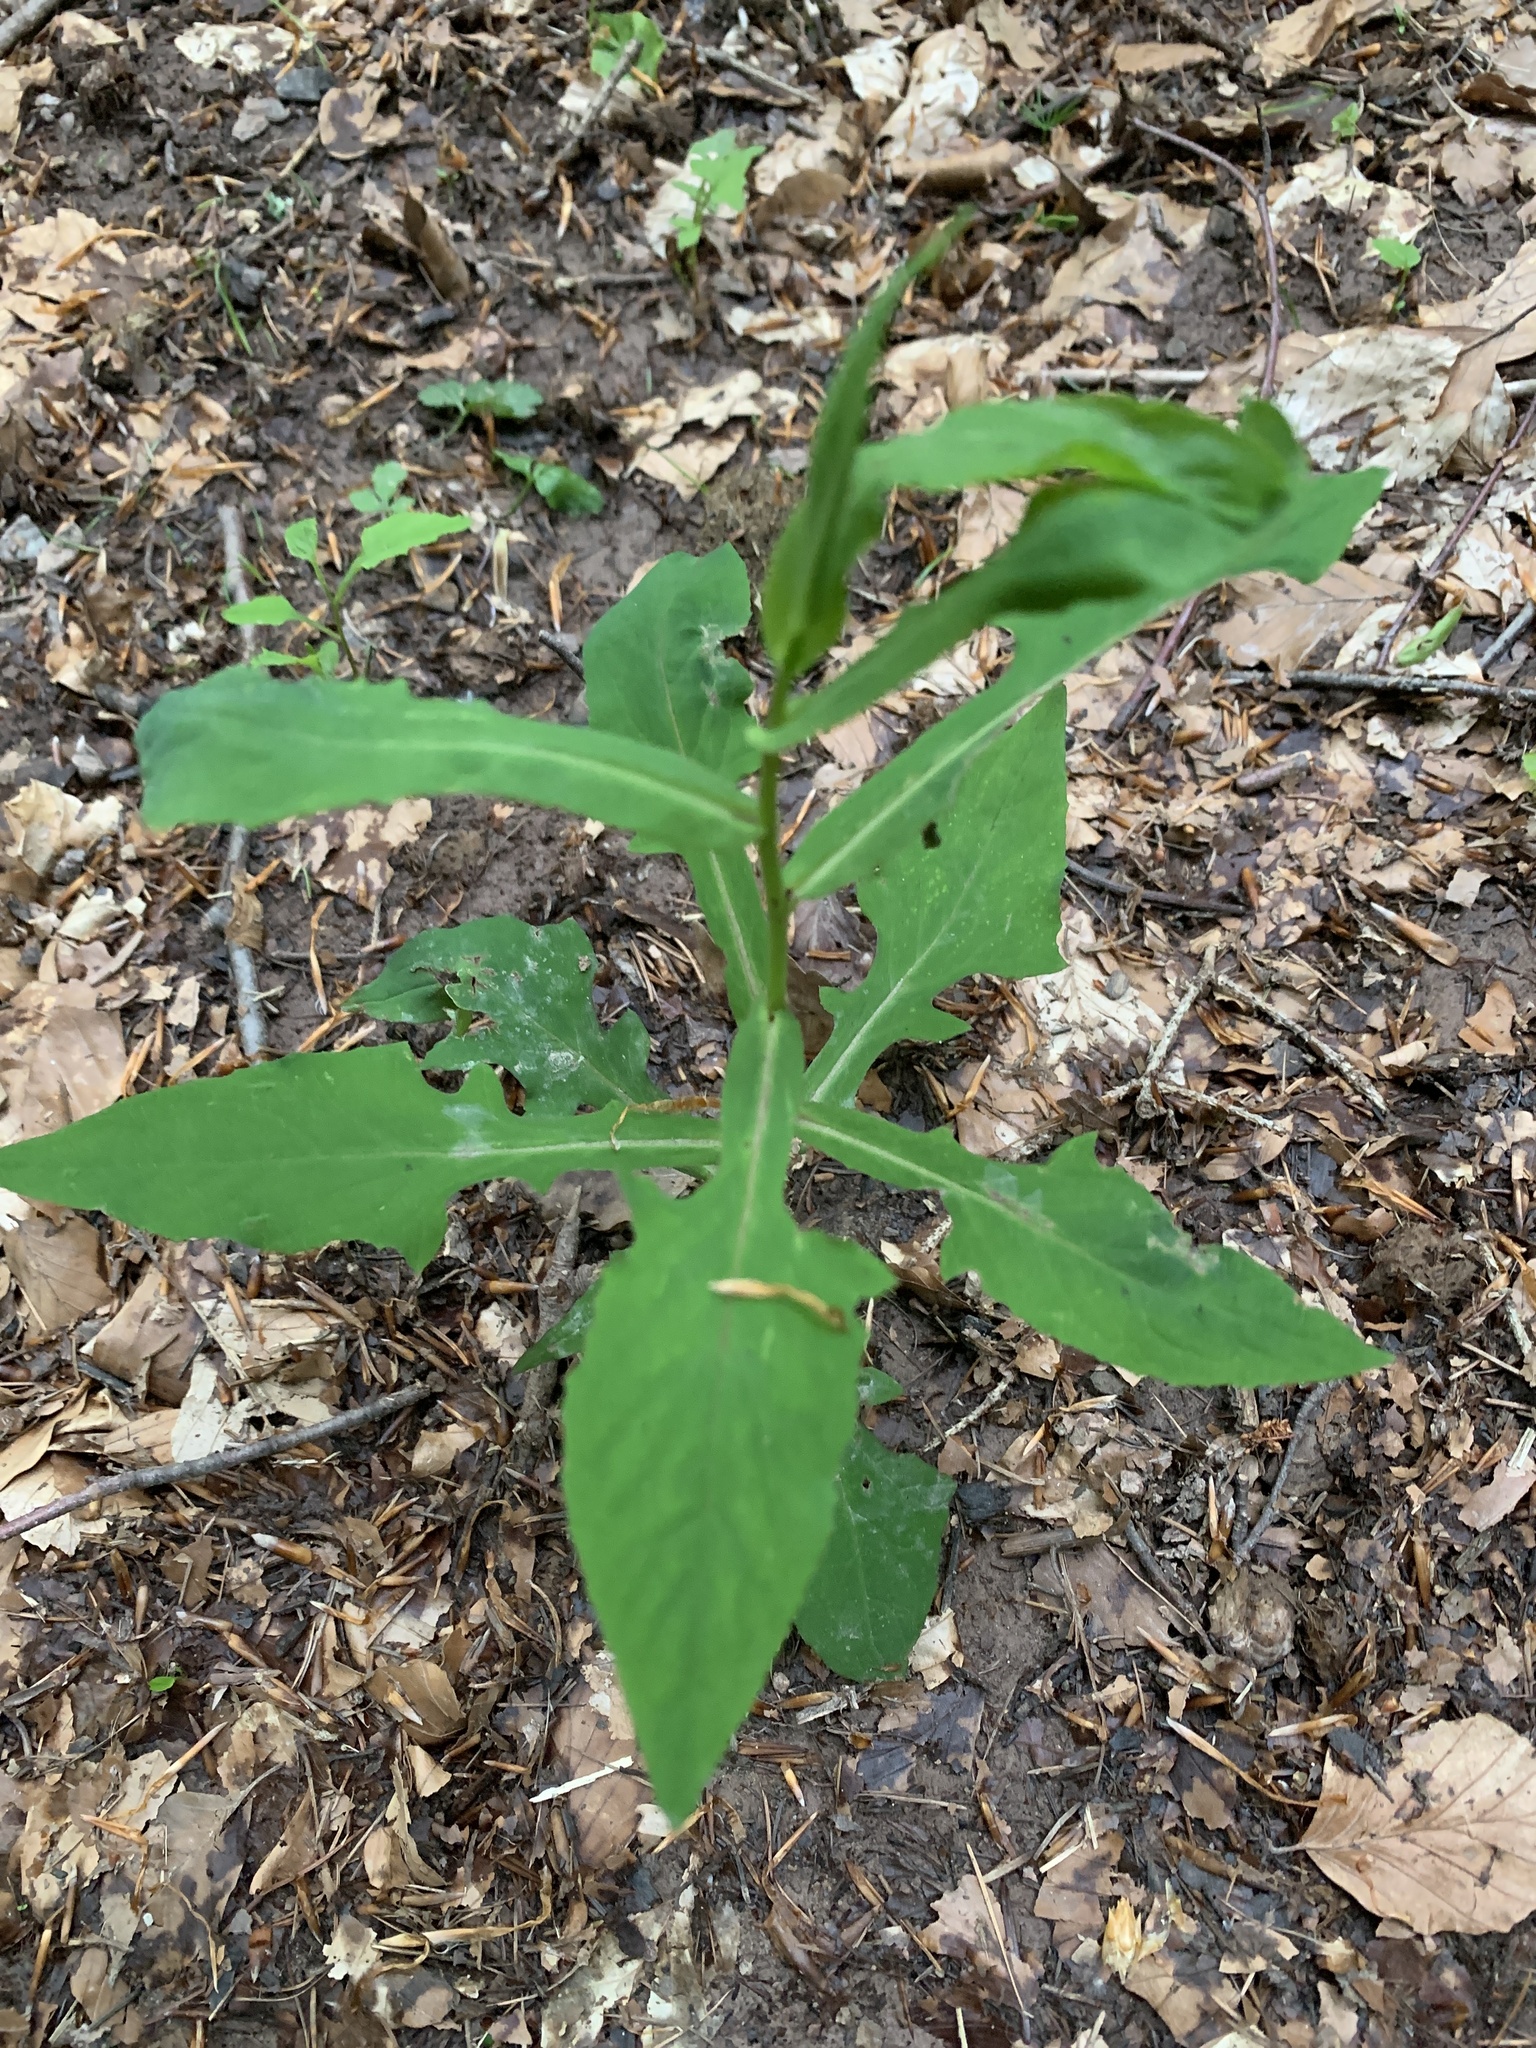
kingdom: Plantae
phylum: Tracheophyta
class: Magnoliopsida
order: Asterales
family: Asteraceae
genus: Prenanthes
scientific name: Prenanthes purpurea
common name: Purple lettuce
